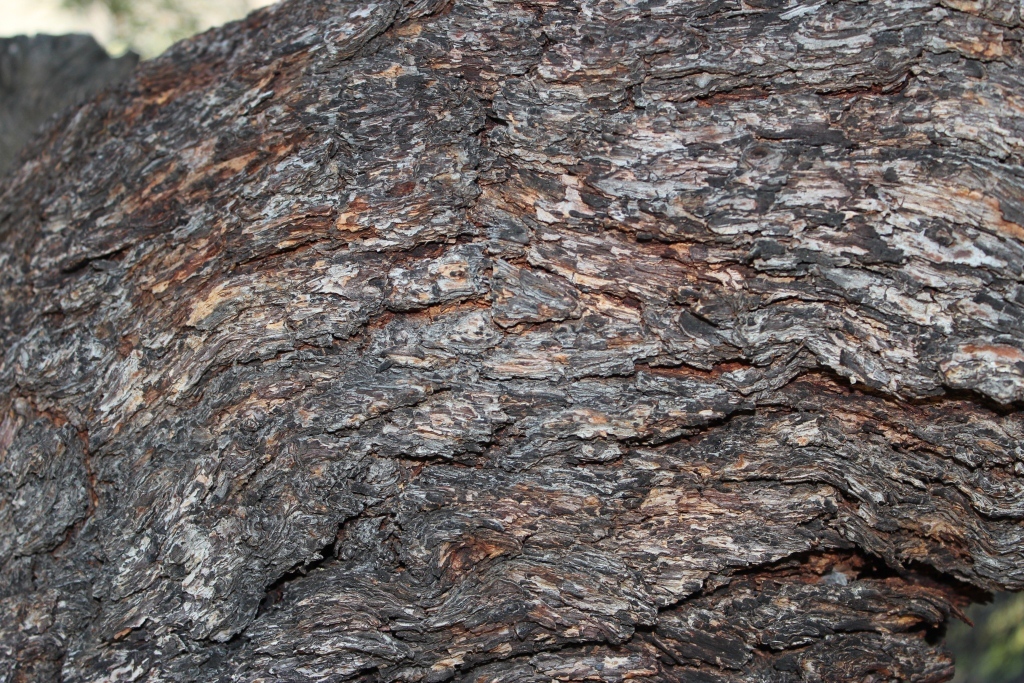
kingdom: Plantae
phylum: Tracheophyta
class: Magnoliopsida
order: Sapindales
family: Anacardiaceae
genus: Searsia
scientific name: Searsia lancea
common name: Cashew
